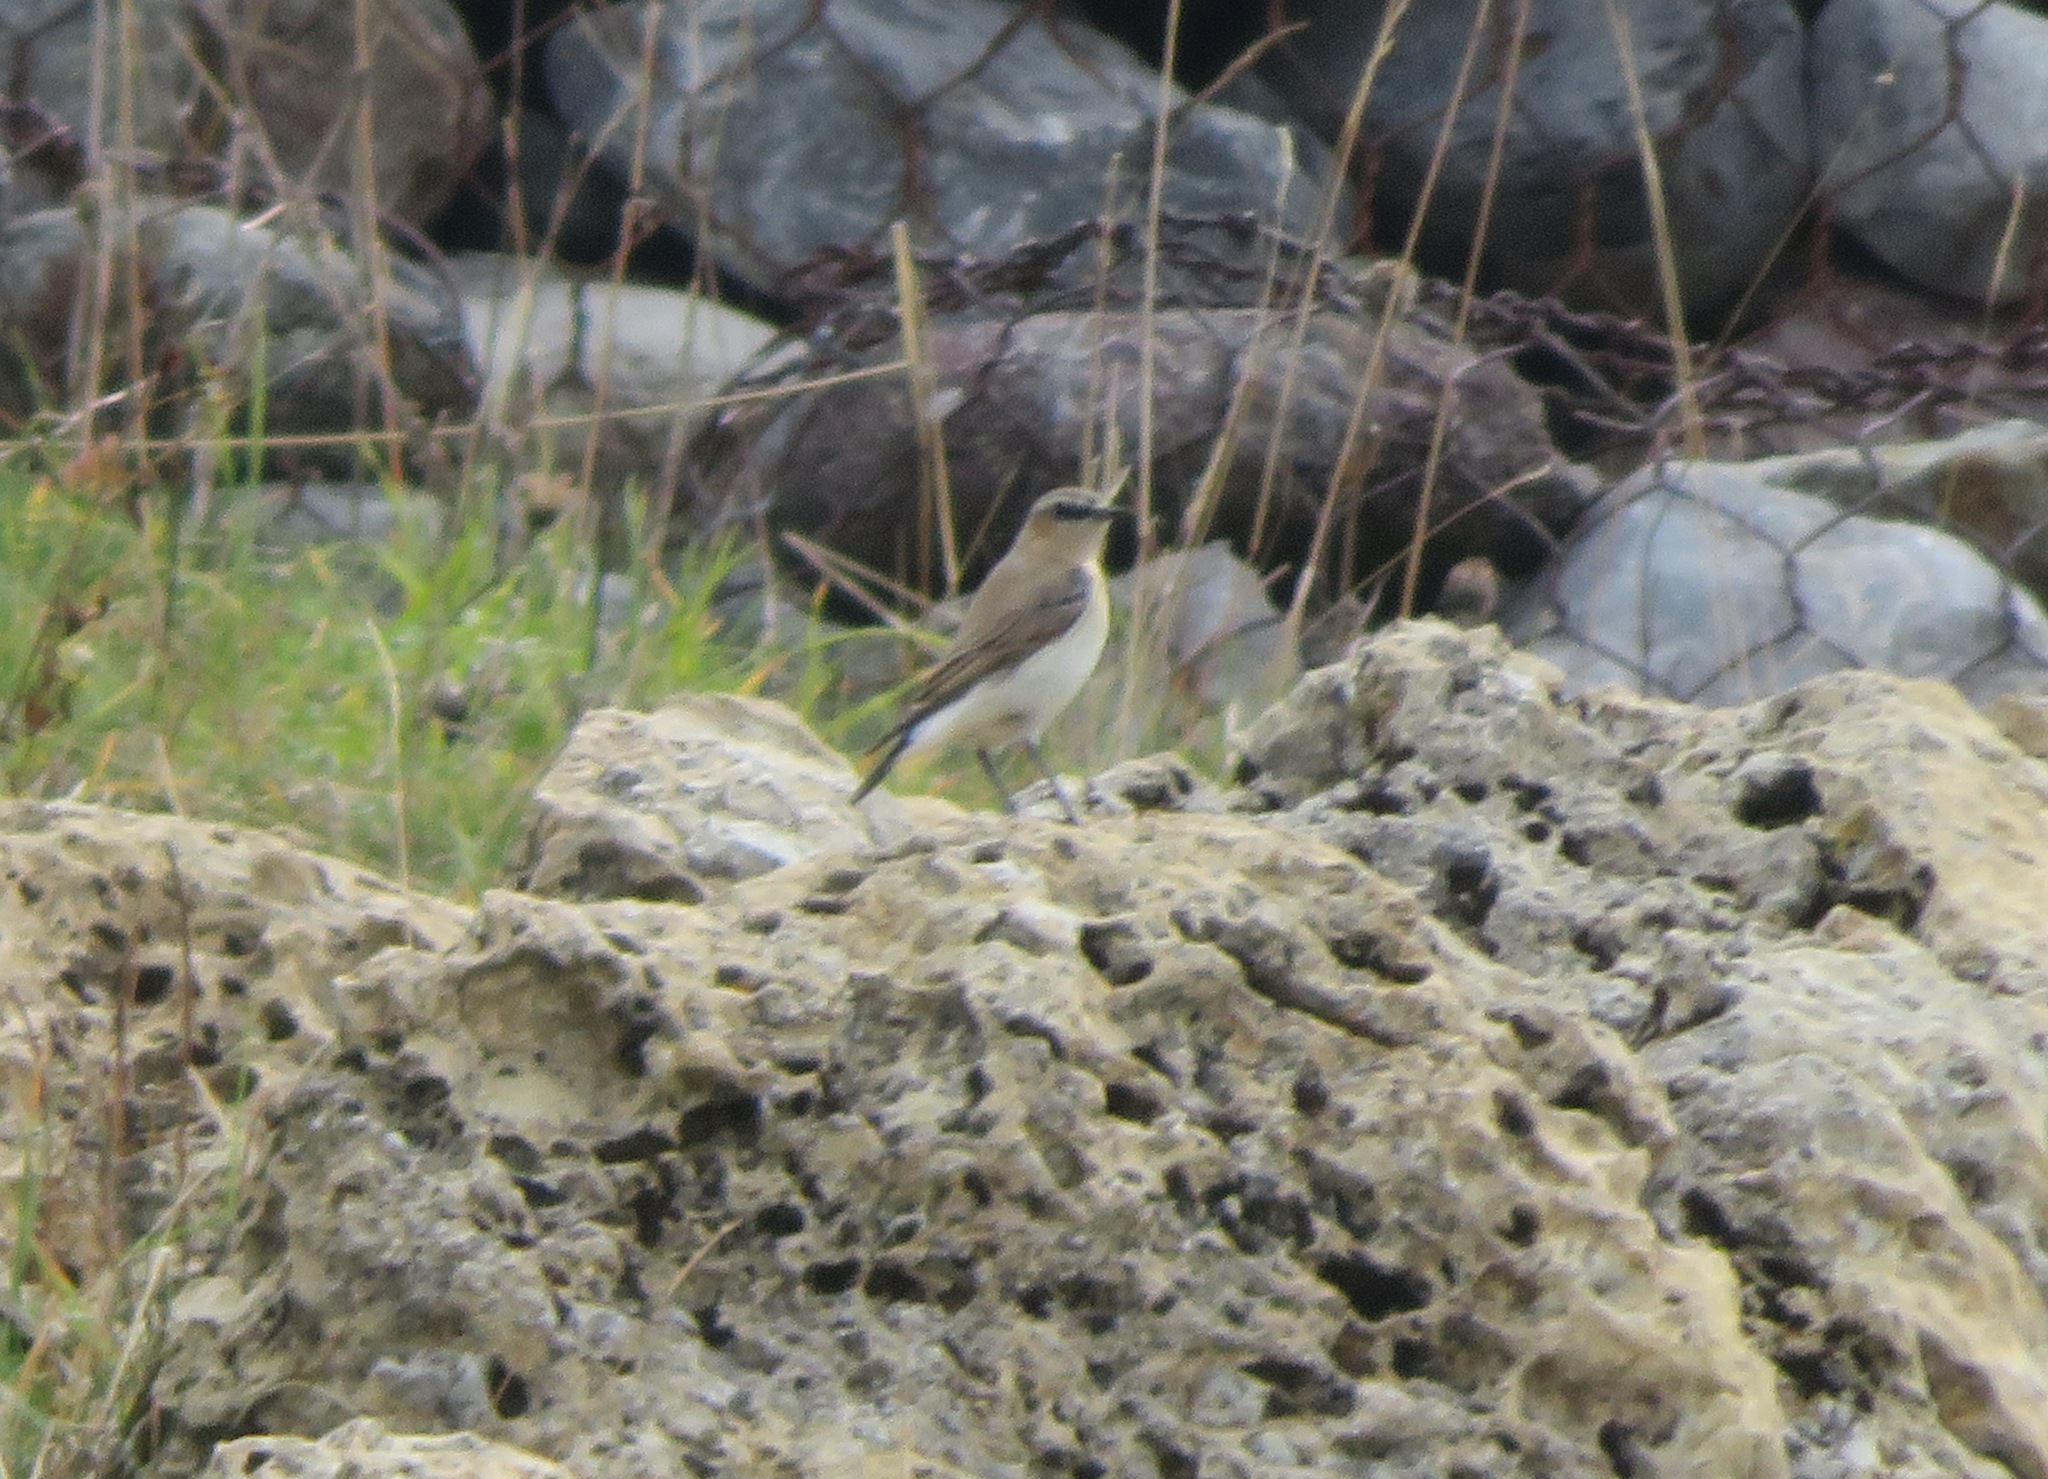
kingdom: Animalia
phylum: Chordata
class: Aves
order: Passeriformes
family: Muscicapidae
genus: Oenanthe
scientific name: Oenanthe oenanthe
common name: Northern wheatear
